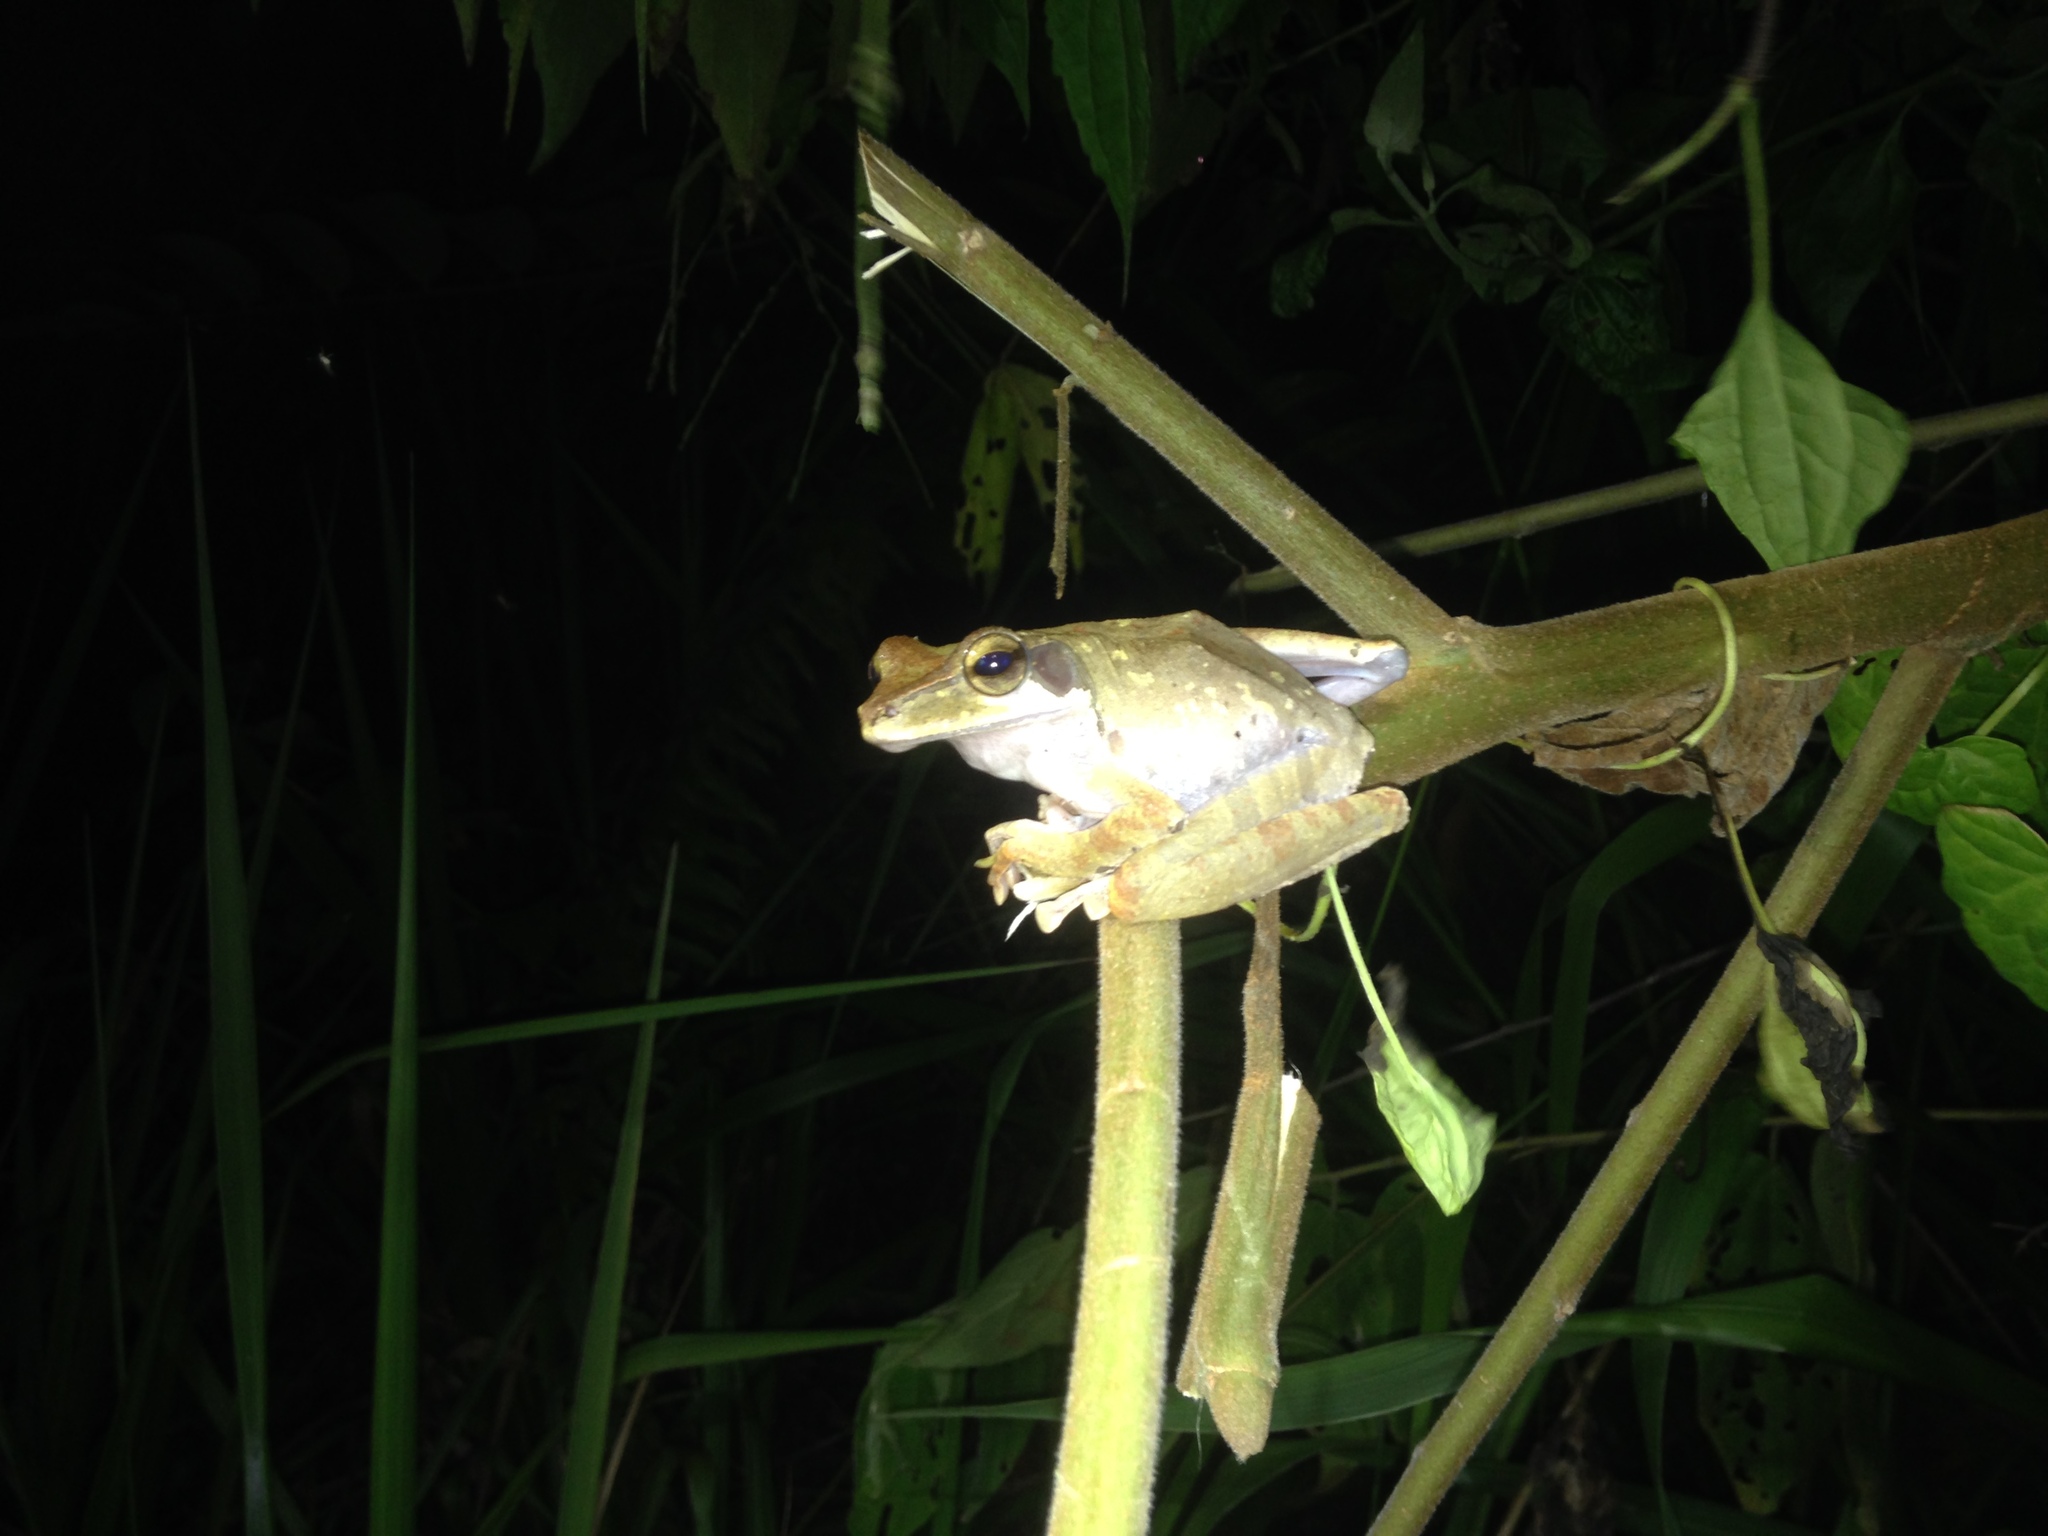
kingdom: Animalia
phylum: Chordata
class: Amphibia
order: Anura
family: Rhacophoridae
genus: Polypedates
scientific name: Polypedates macrotis
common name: Dark-eared tree frog
